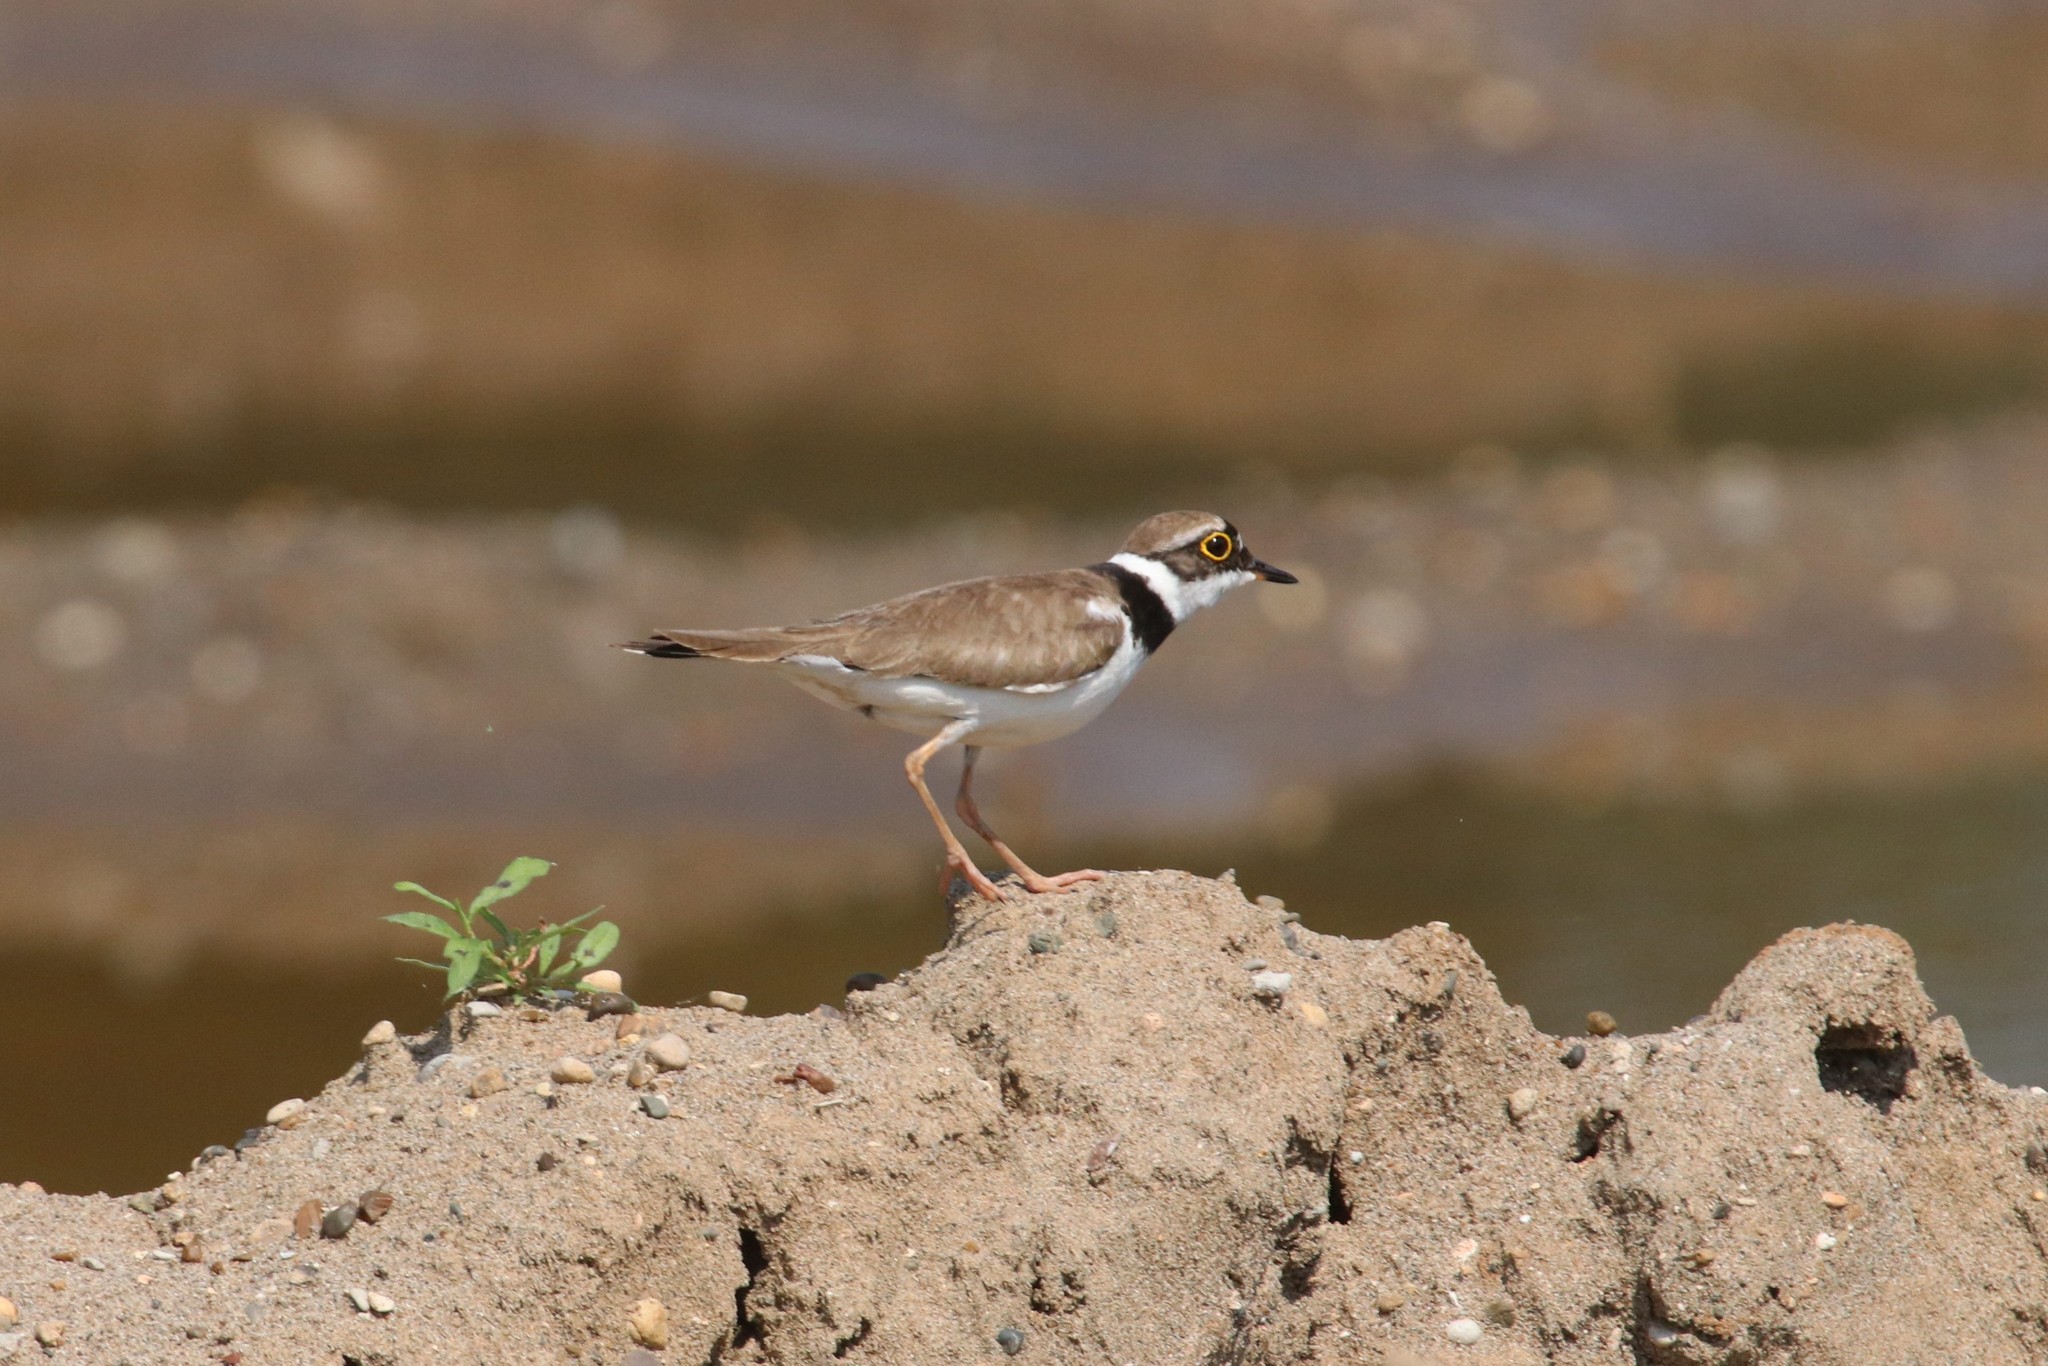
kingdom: Animalia
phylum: Chordata
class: Aves
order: Charadriiformes
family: Charadriidae
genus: Charadrius
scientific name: Charadrius dubius
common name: Little ringed plover
